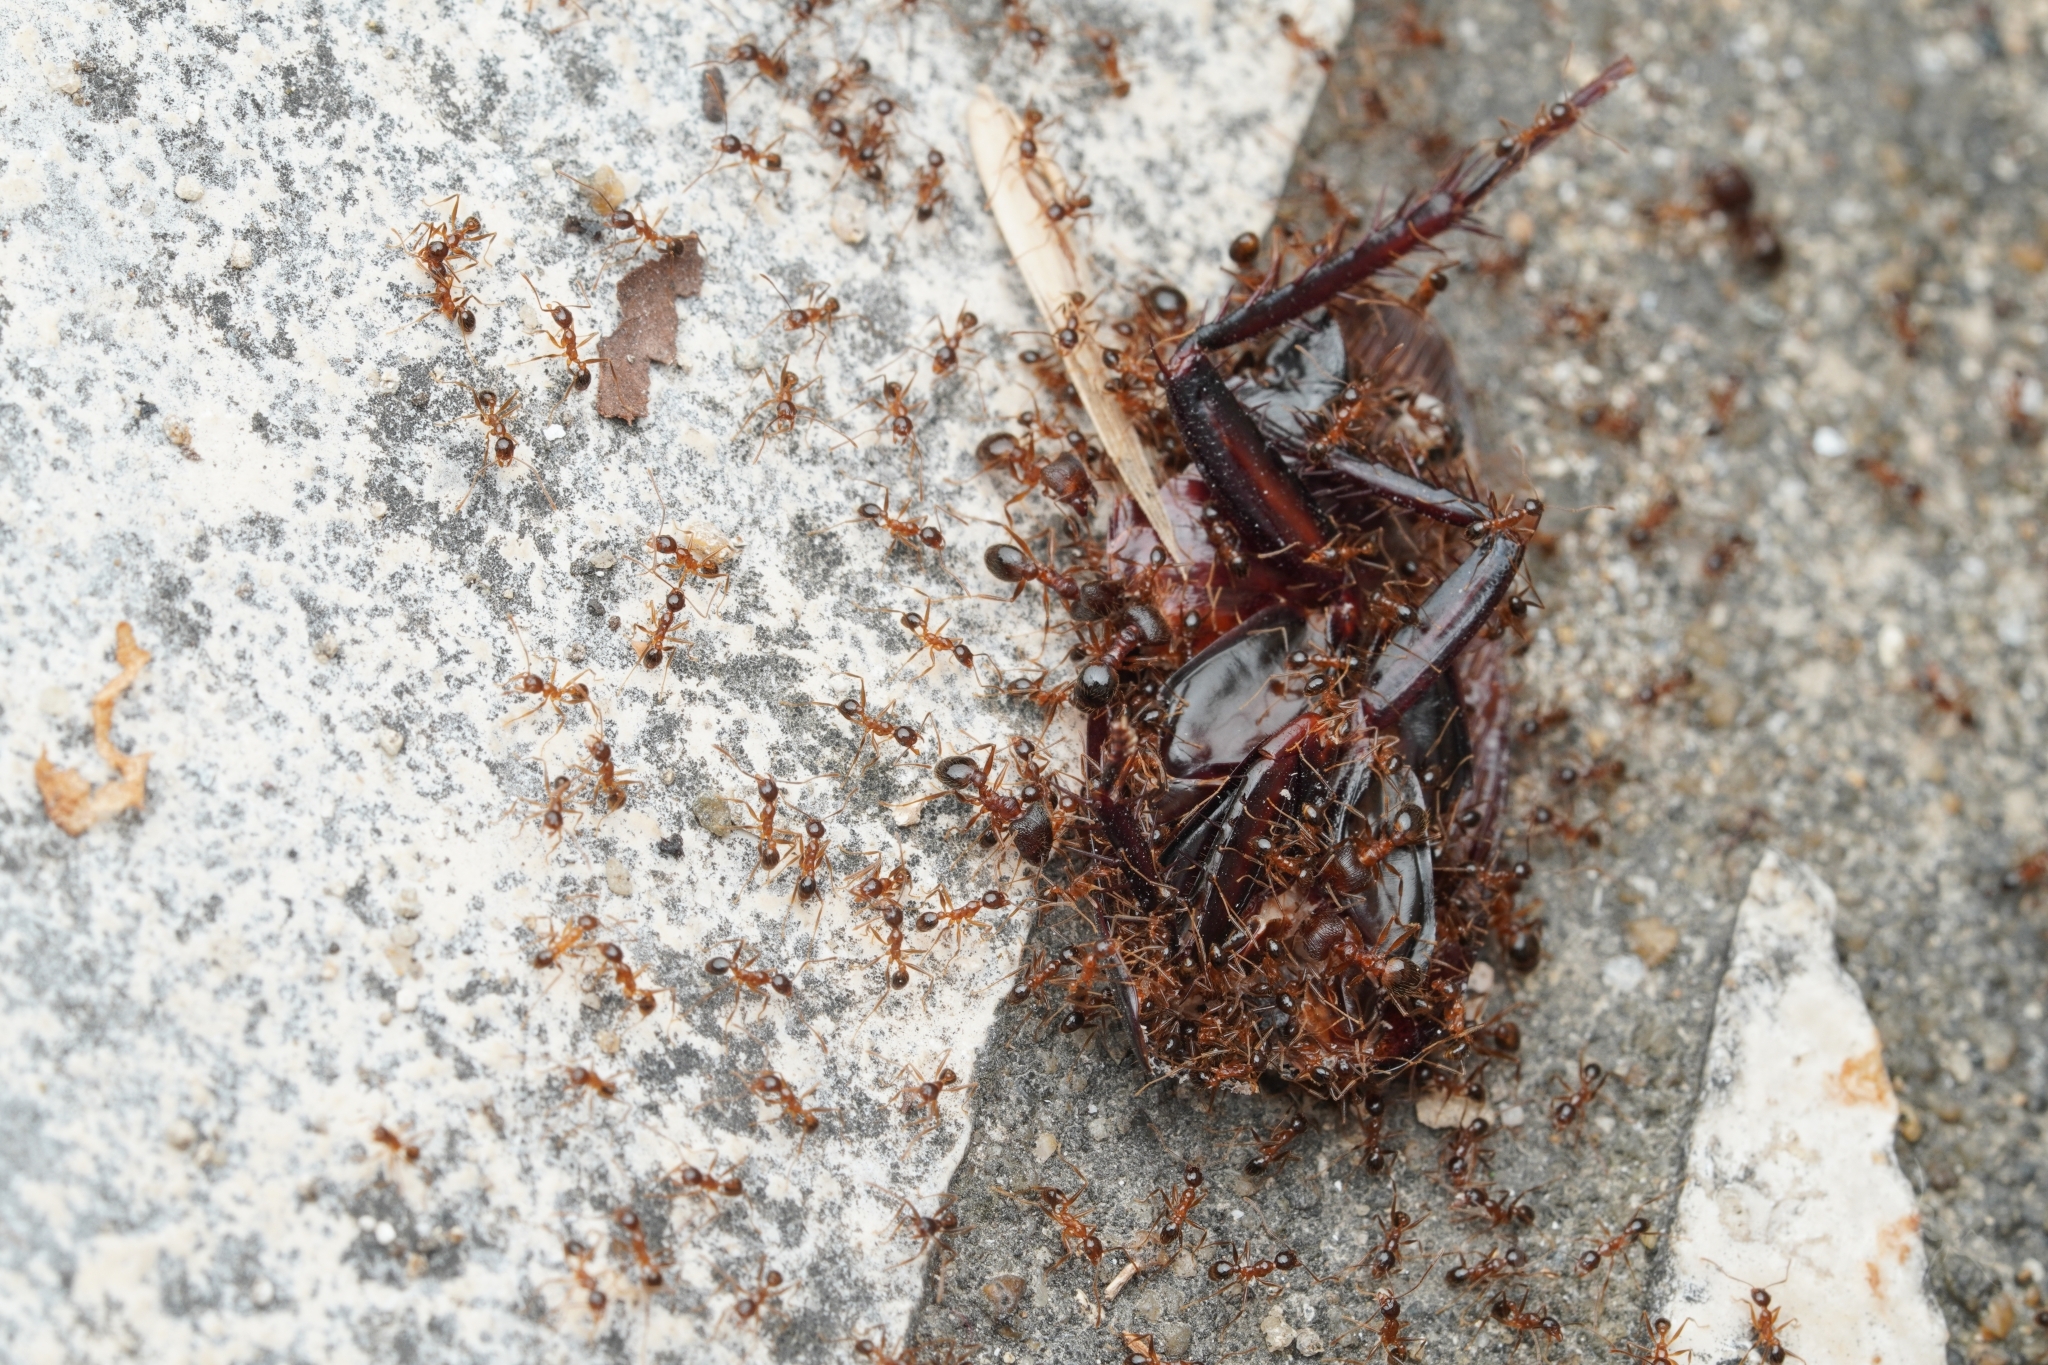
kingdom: Animalia
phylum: Arthropoda
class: Insecta
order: Hymenoptera
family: Formicidae
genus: Pheidole
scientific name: Pheidole noda
